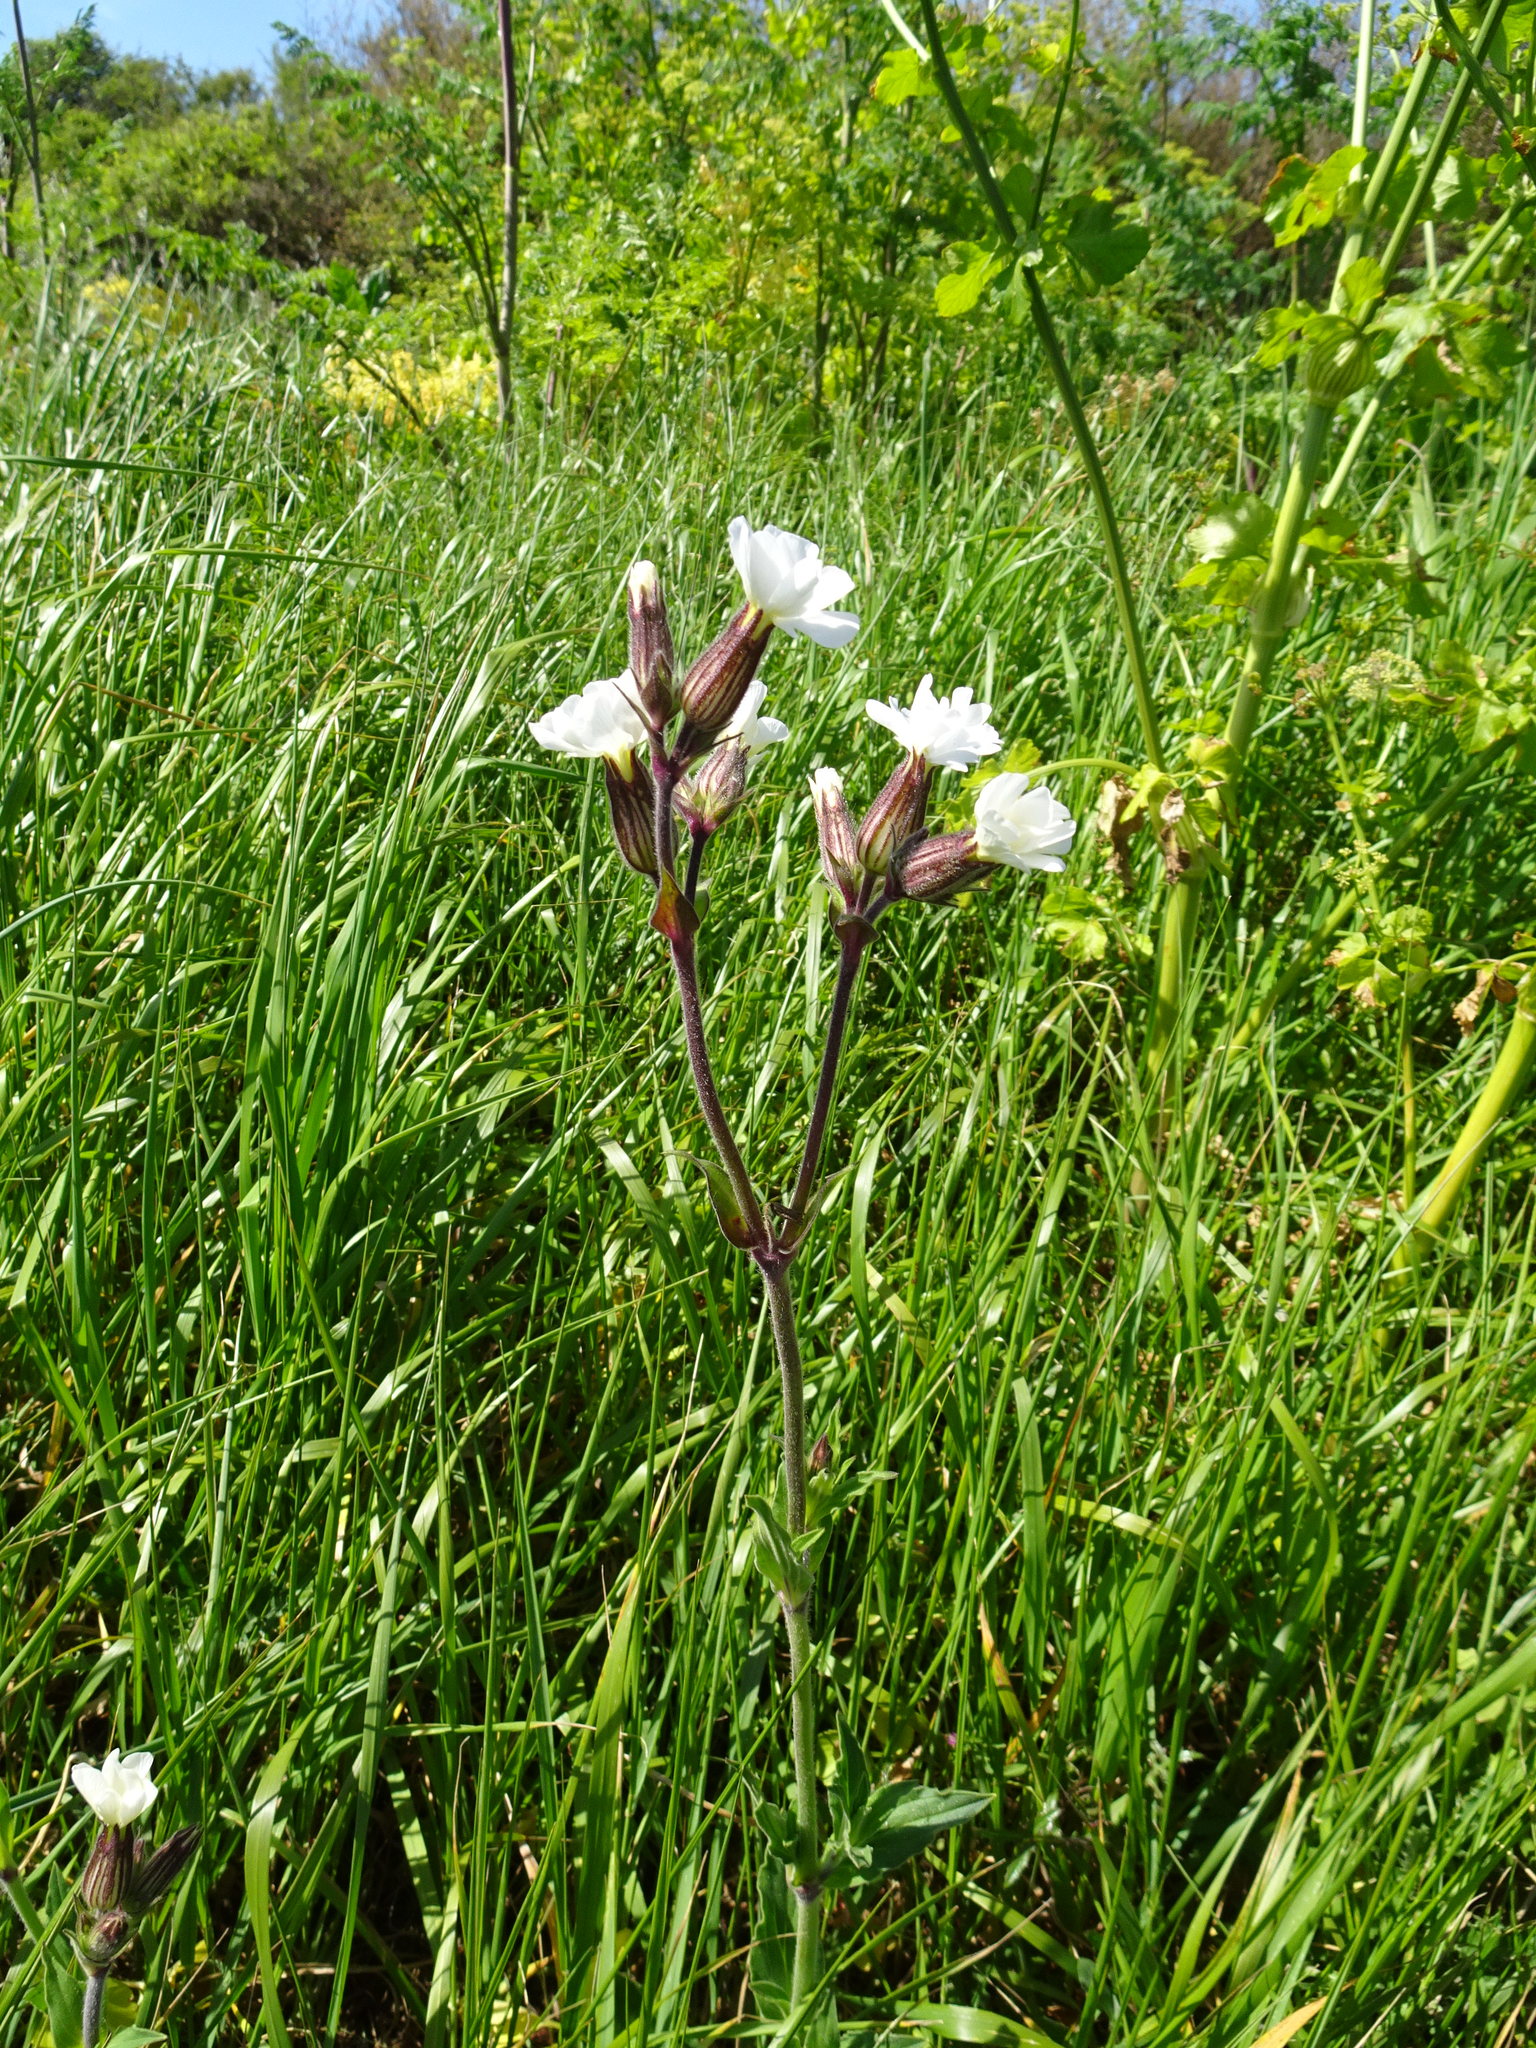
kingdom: Plantae
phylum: Tracheophyta
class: Magnoliopsida
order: Caryophyllales
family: Caryophyllaceae
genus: Silene
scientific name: Silene latifolia
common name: White campion
